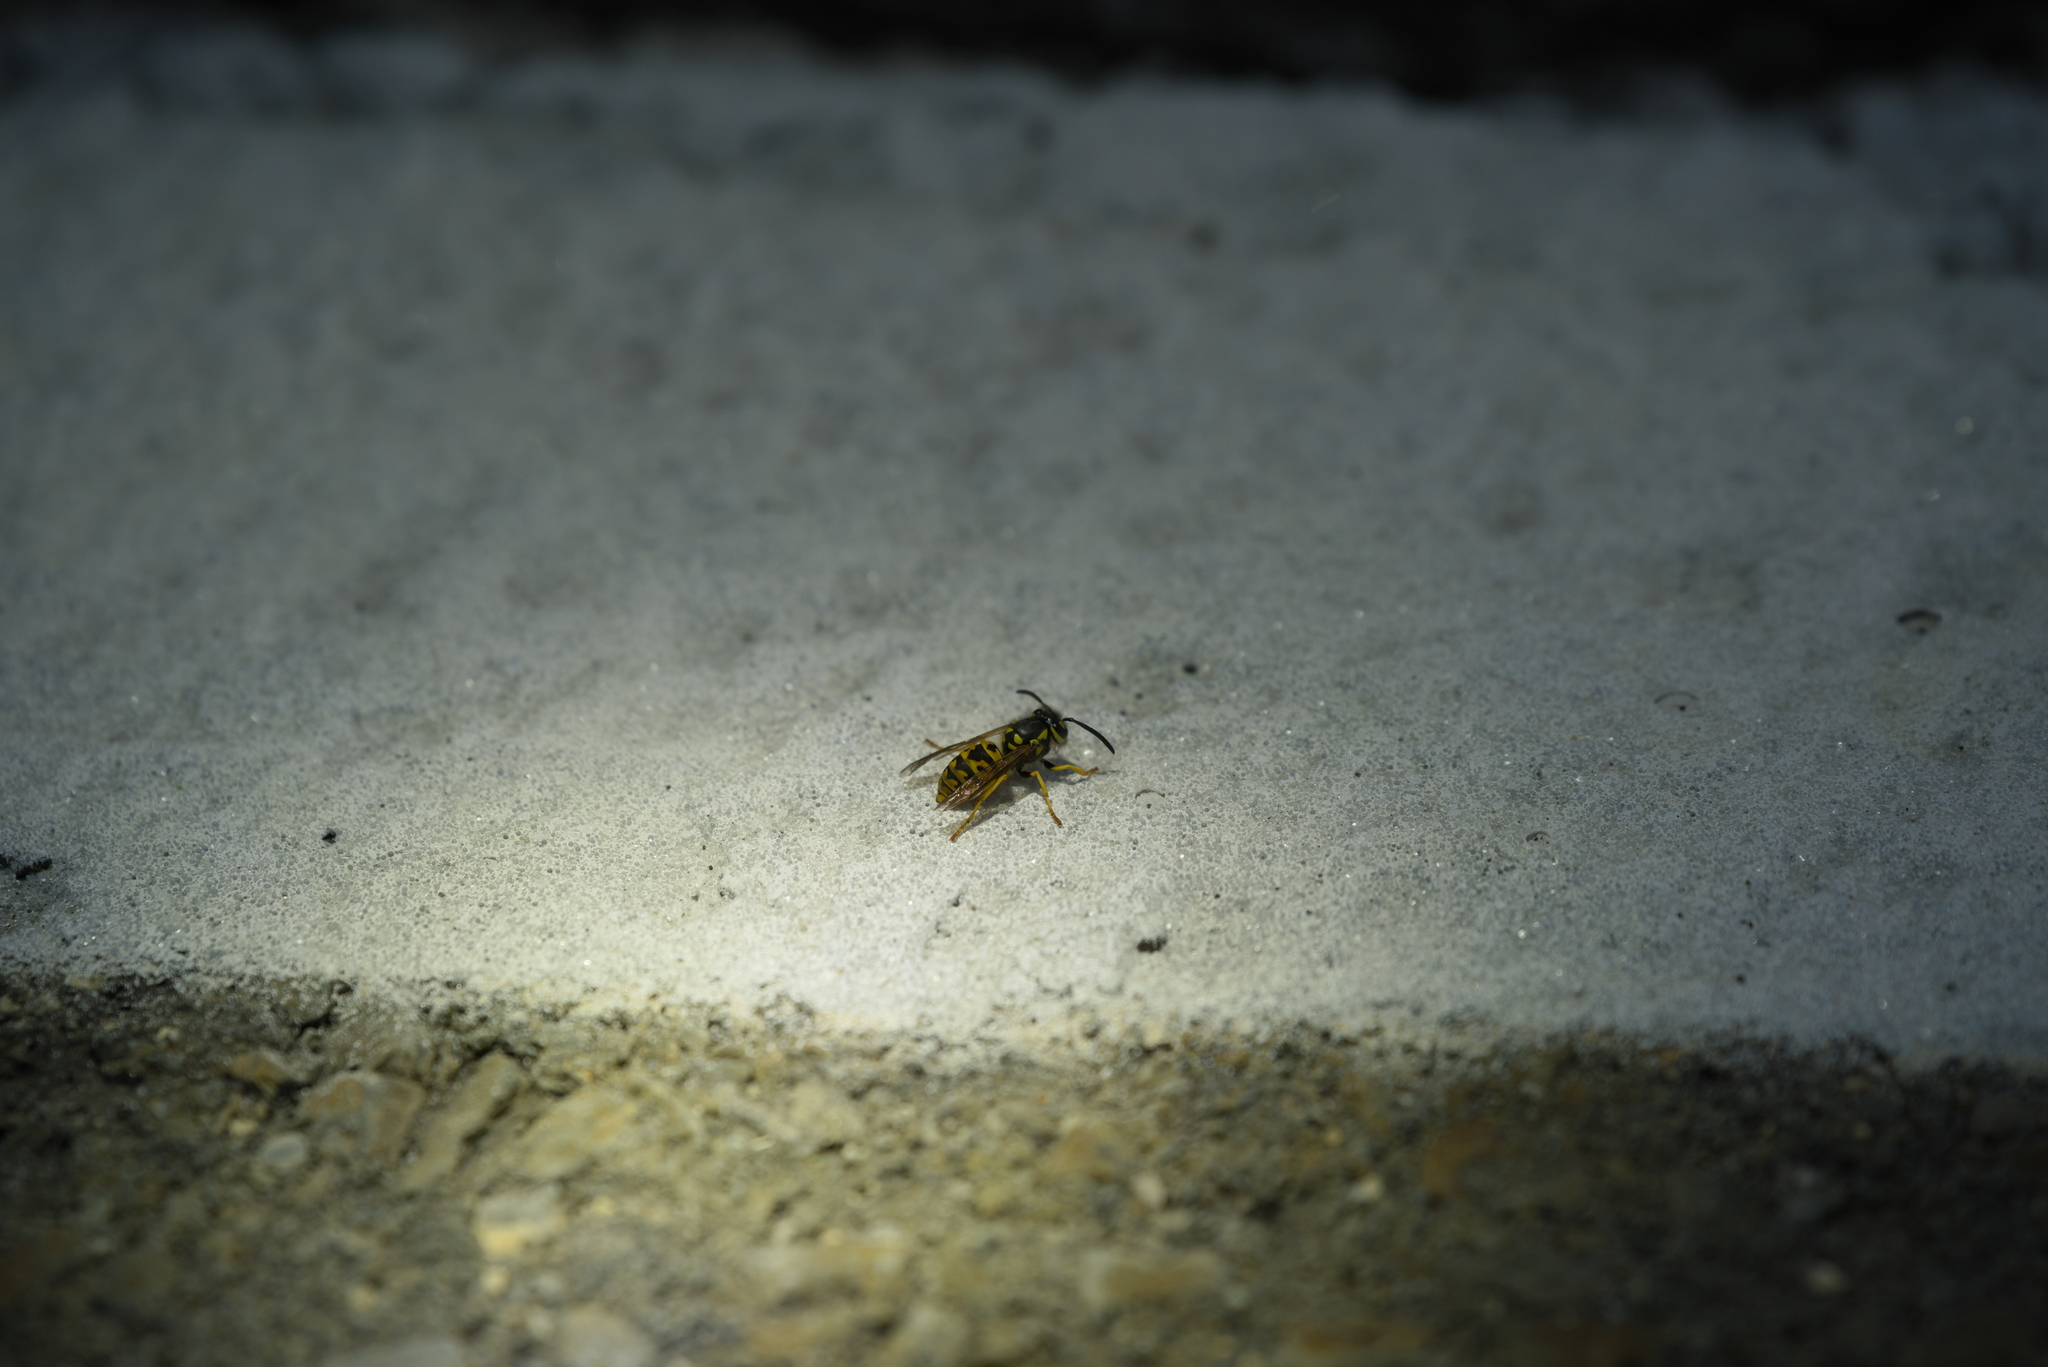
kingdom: Animalia
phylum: Arthropoda
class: Insecta
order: Hymenoptera
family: Vespidae
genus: Vespula
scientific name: Vespula germanica
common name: German wasp
